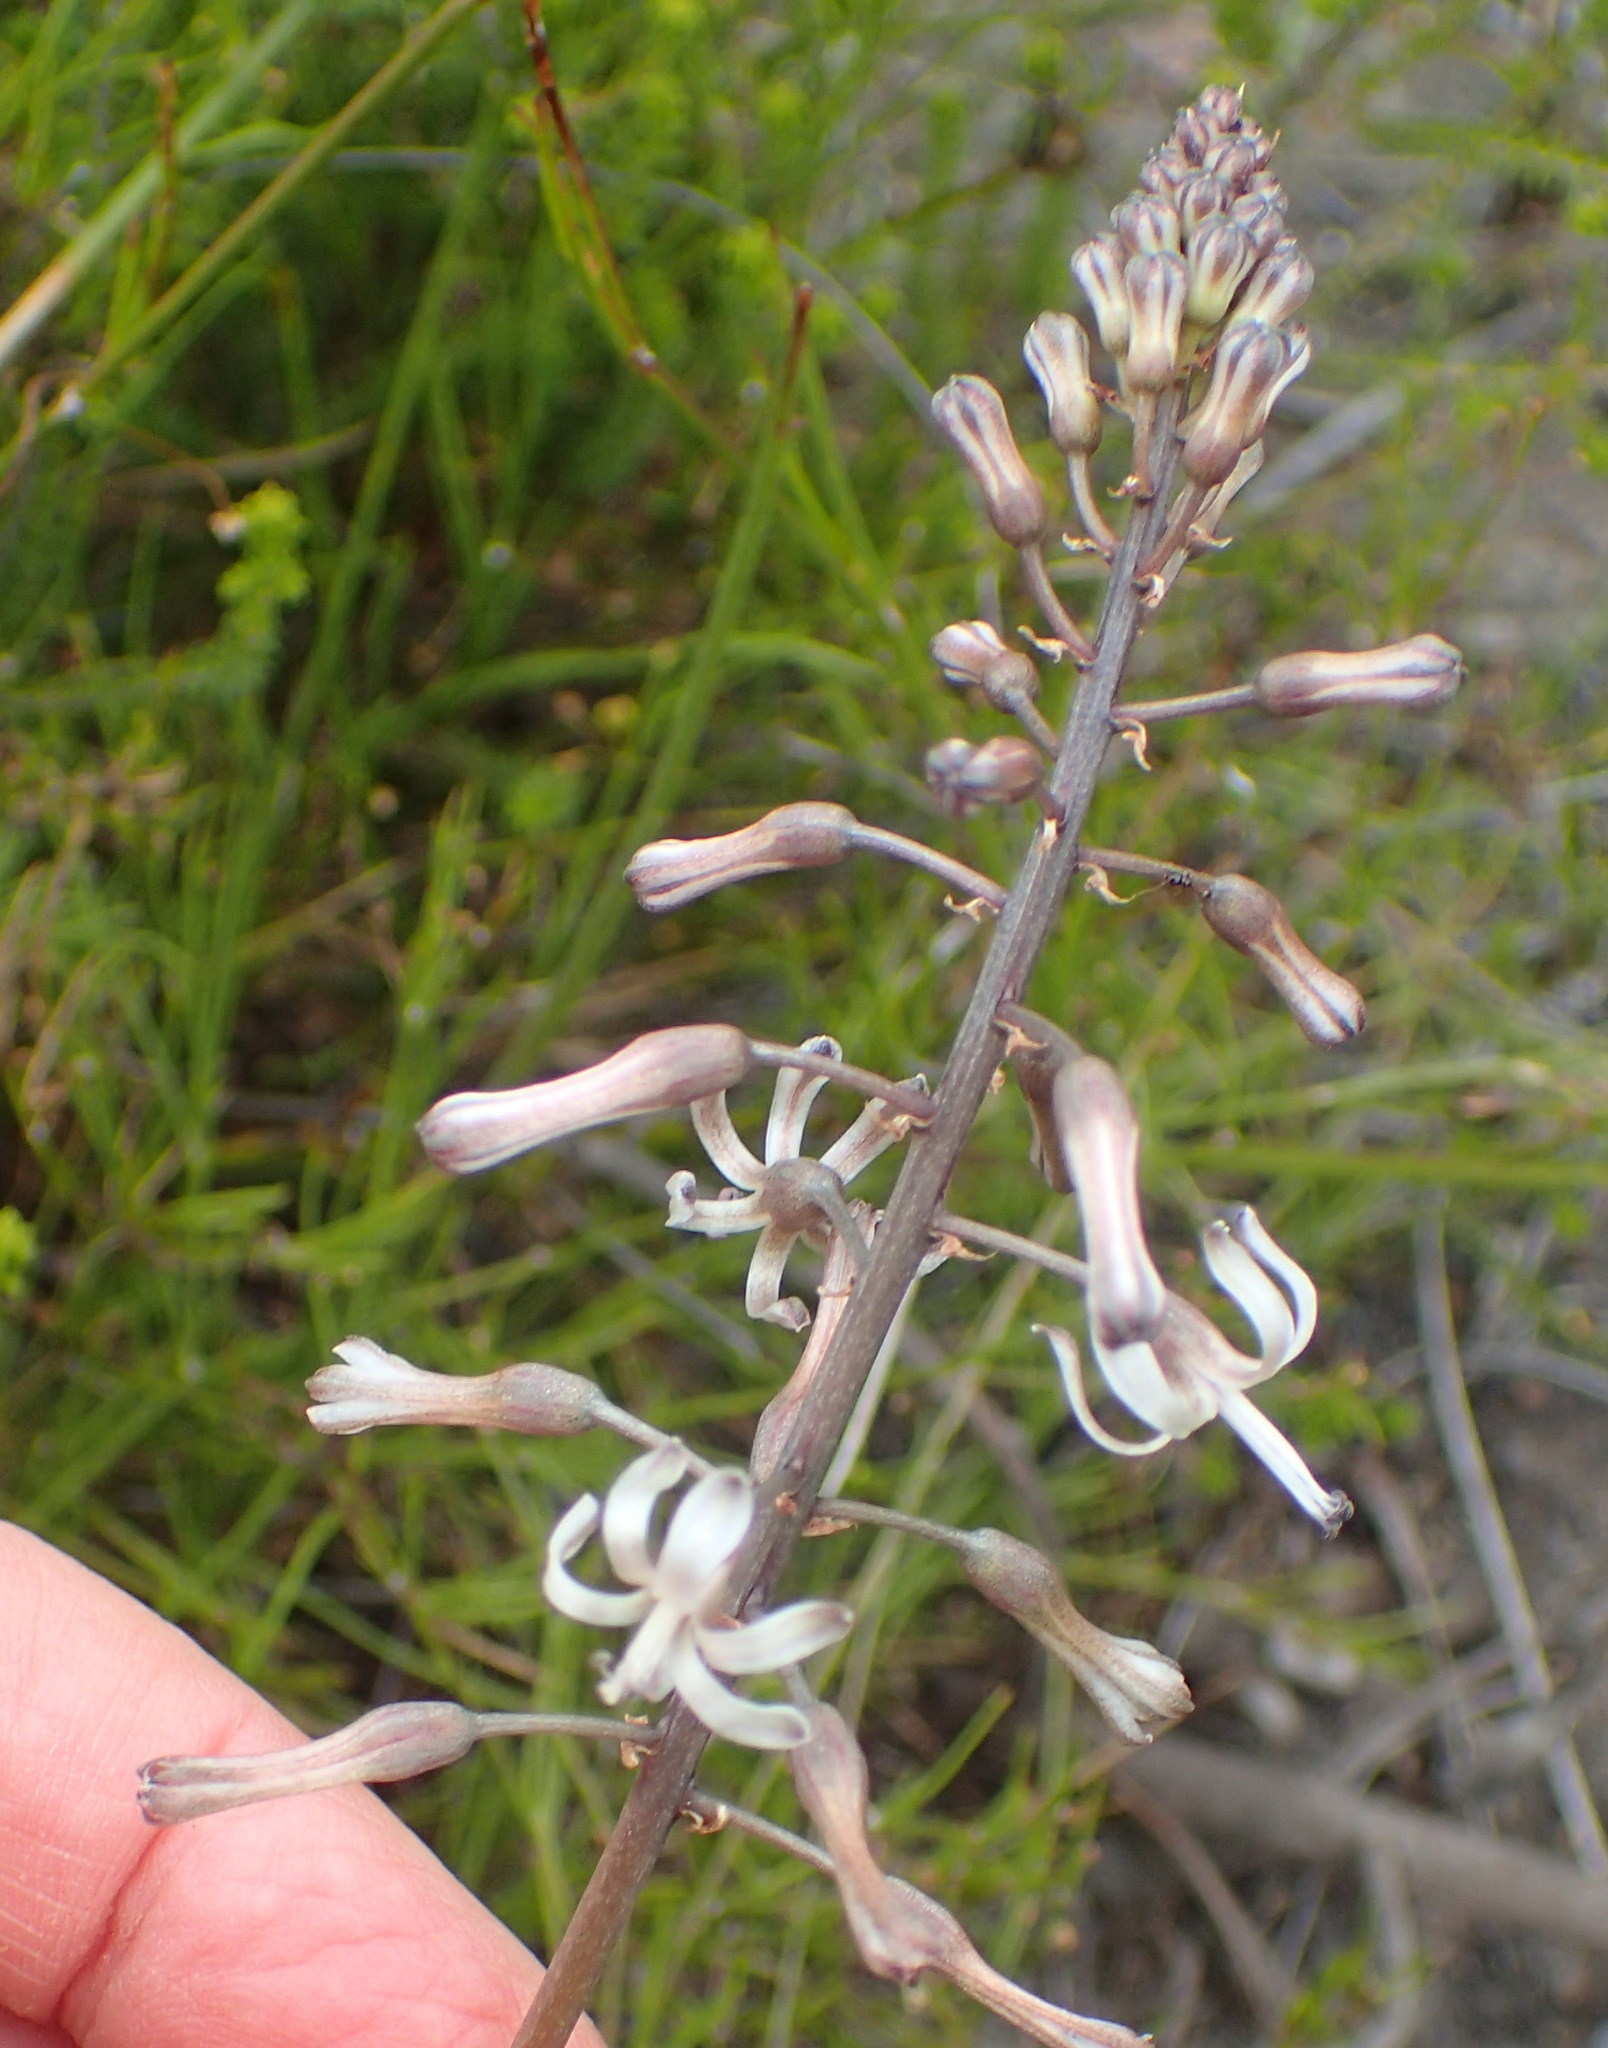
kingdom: Plantae
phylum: Tracheophyta
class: Liliopsida
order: Asparagales
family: Asparagaceae
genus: Drimia
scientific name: Drimia media
